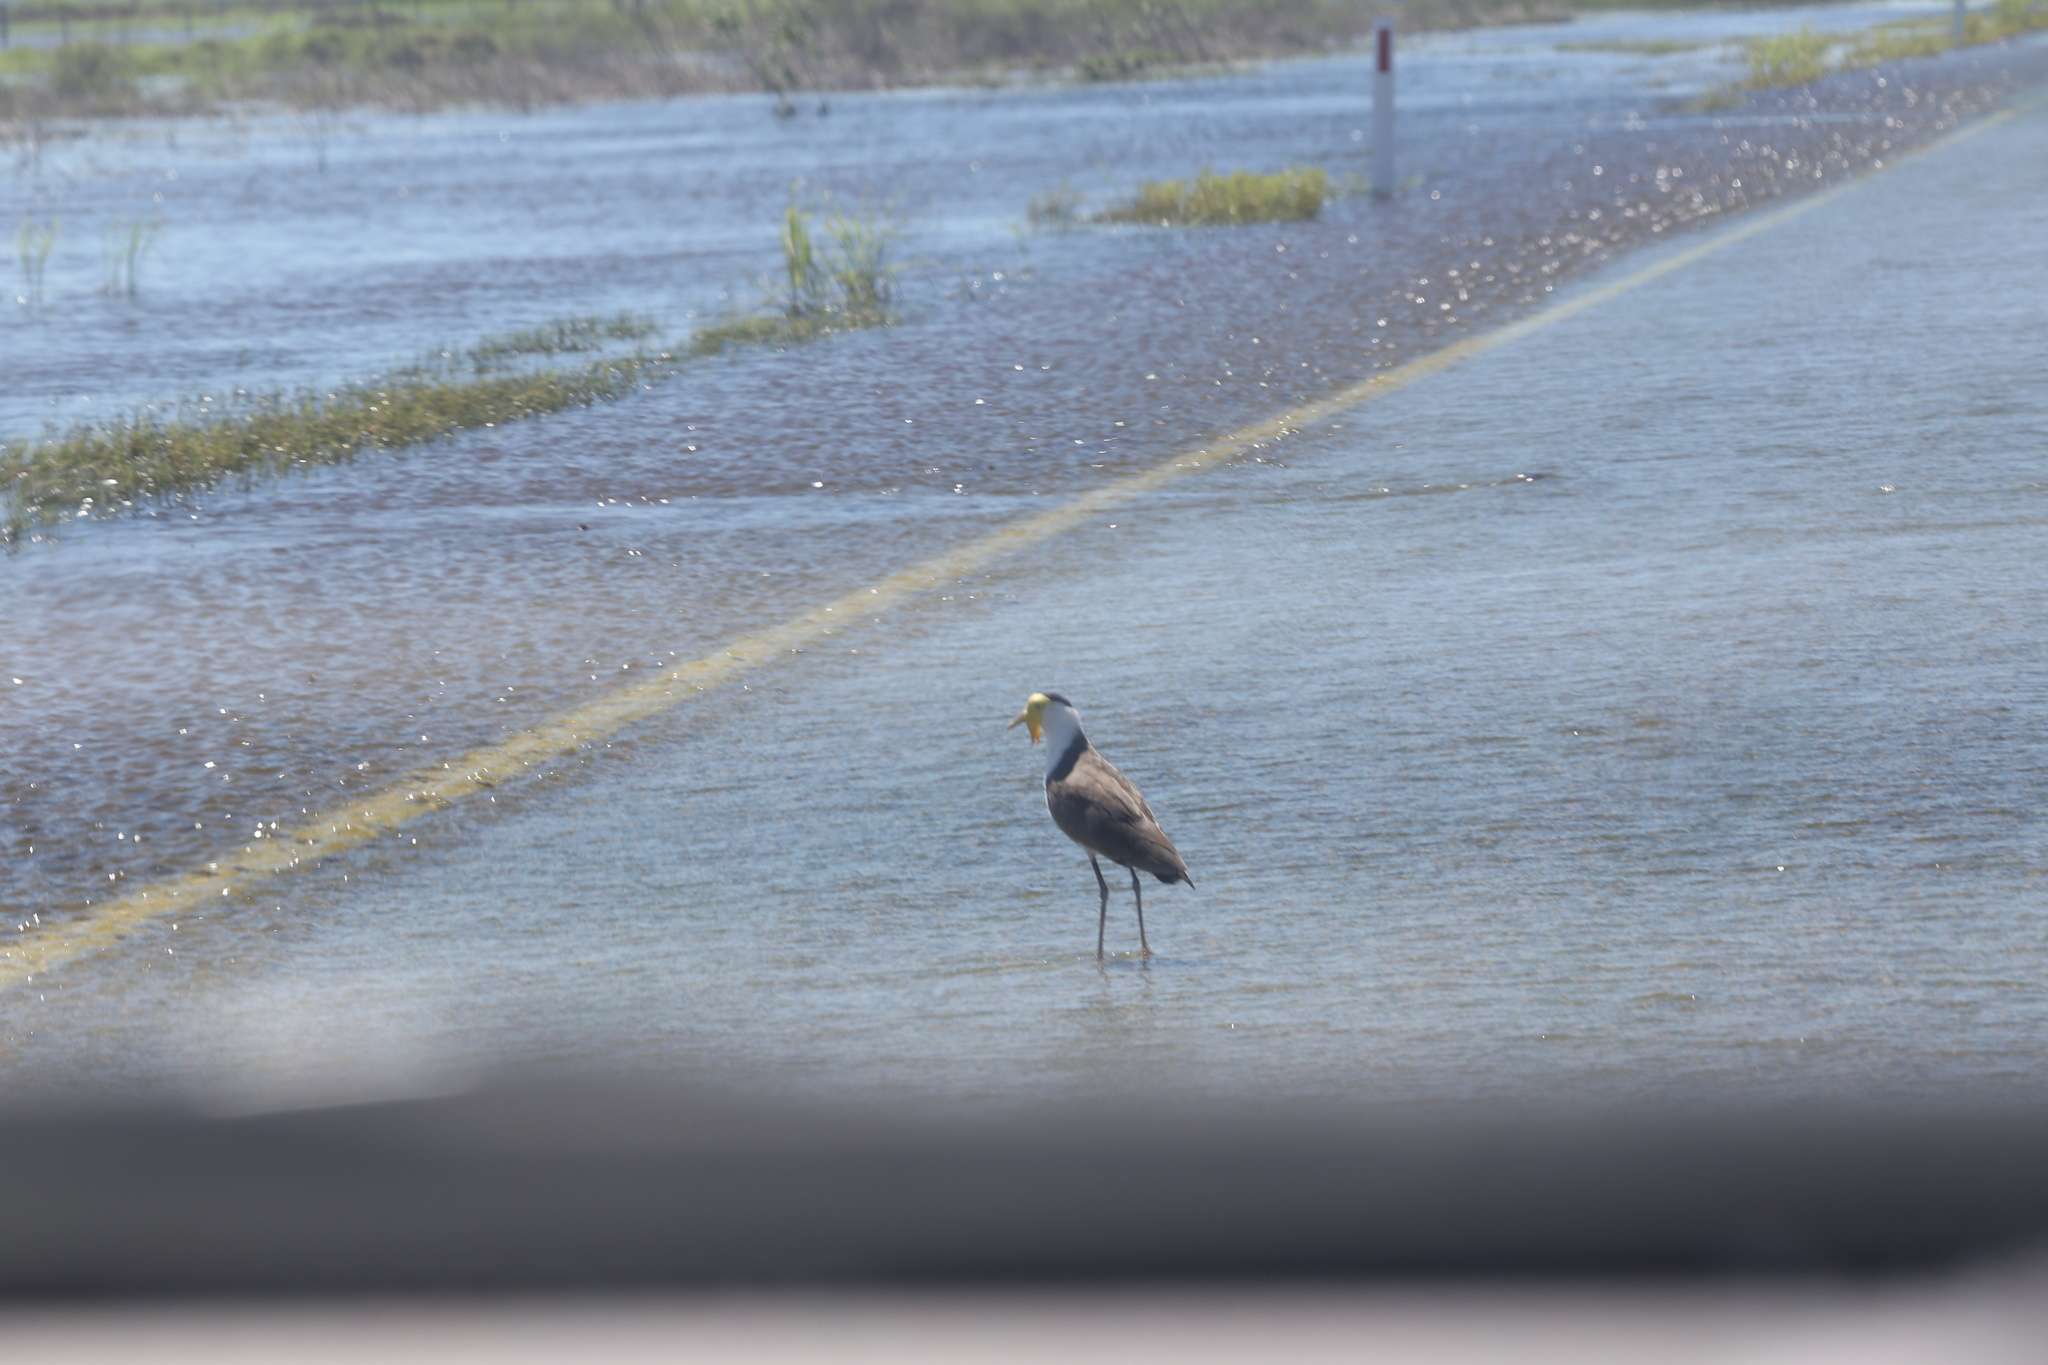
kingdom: Animalia
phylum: Chordata
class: Aves
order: Charadriiformes
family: Charadriidae
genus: Vanellus
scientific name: Vanellus miles
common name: Masked lapwing
